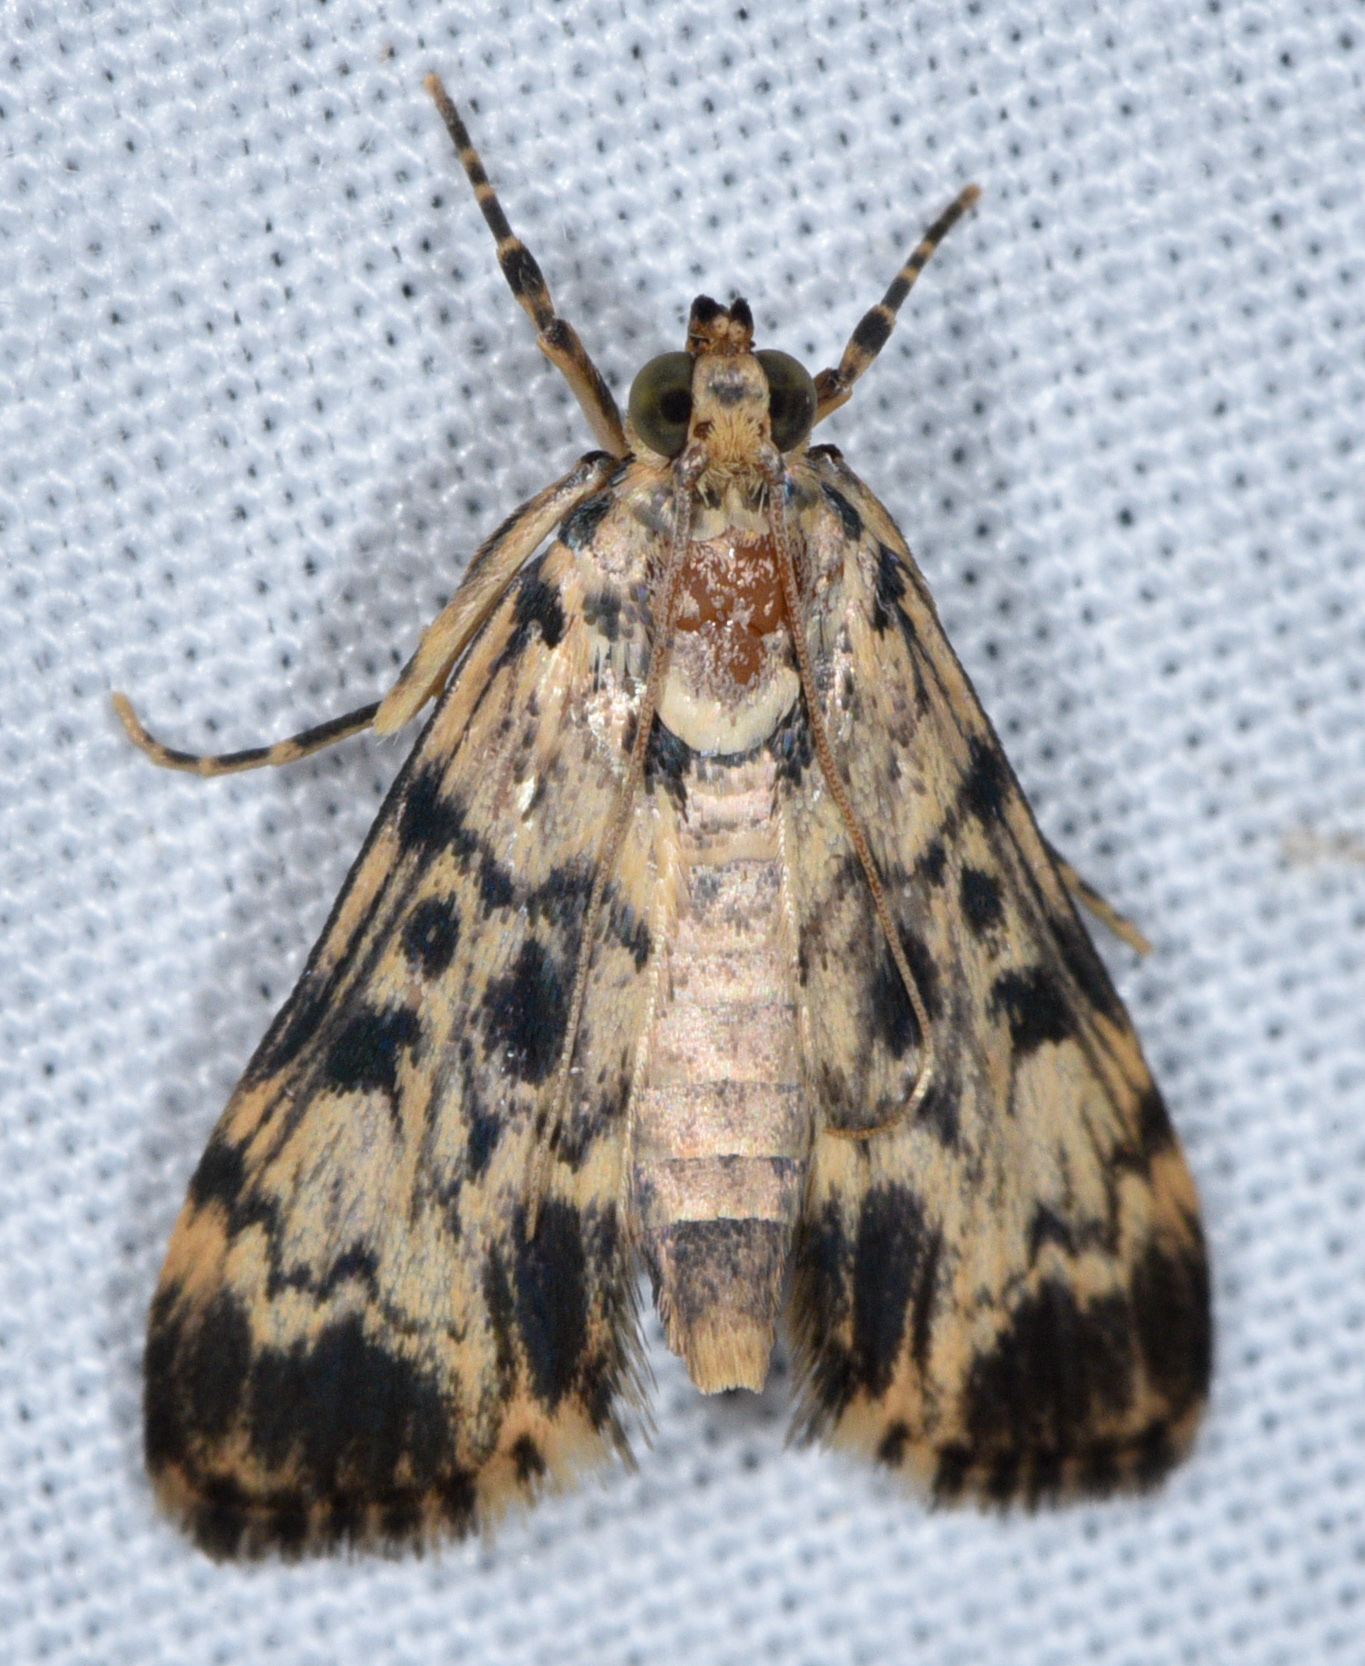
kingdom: Animalia
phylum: Arthropoda
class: Insecta
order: Lepidoptera
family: Crambidae
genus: Lamprosema
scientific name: Lamprosema Blepharomastix schistisemalis
